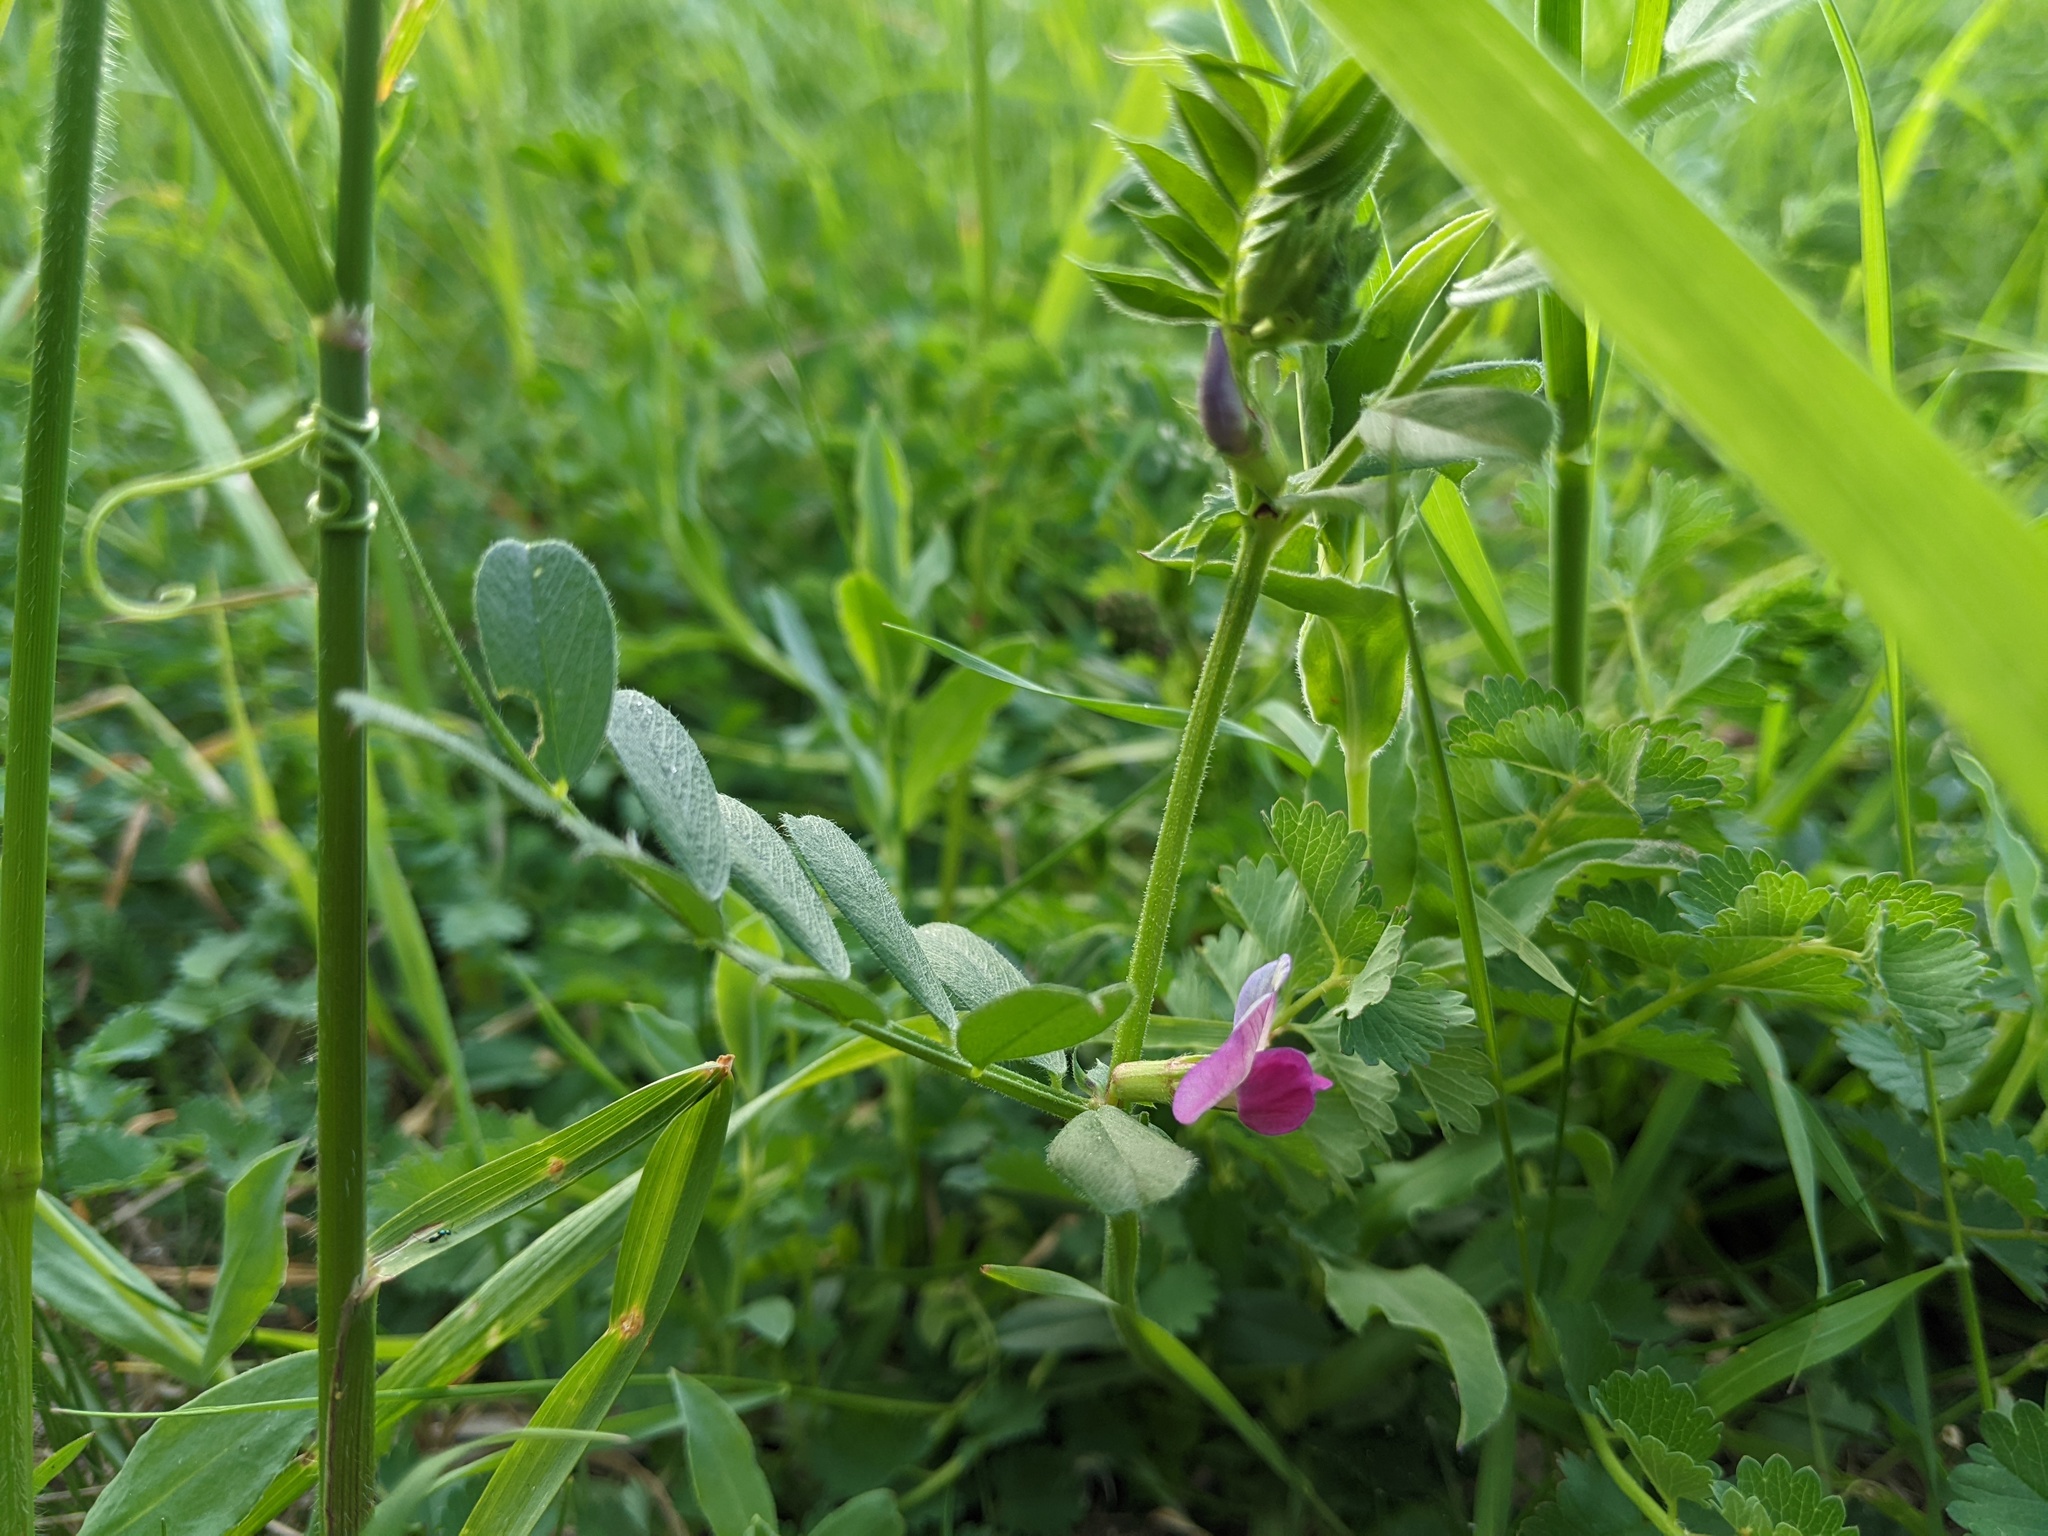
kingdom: Plantae
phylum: Tracheophyta
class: Magnoliopsida
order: Fabales
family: Fabaceae
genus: Vicia
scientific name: Vicia sativa
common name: Garden vetch
